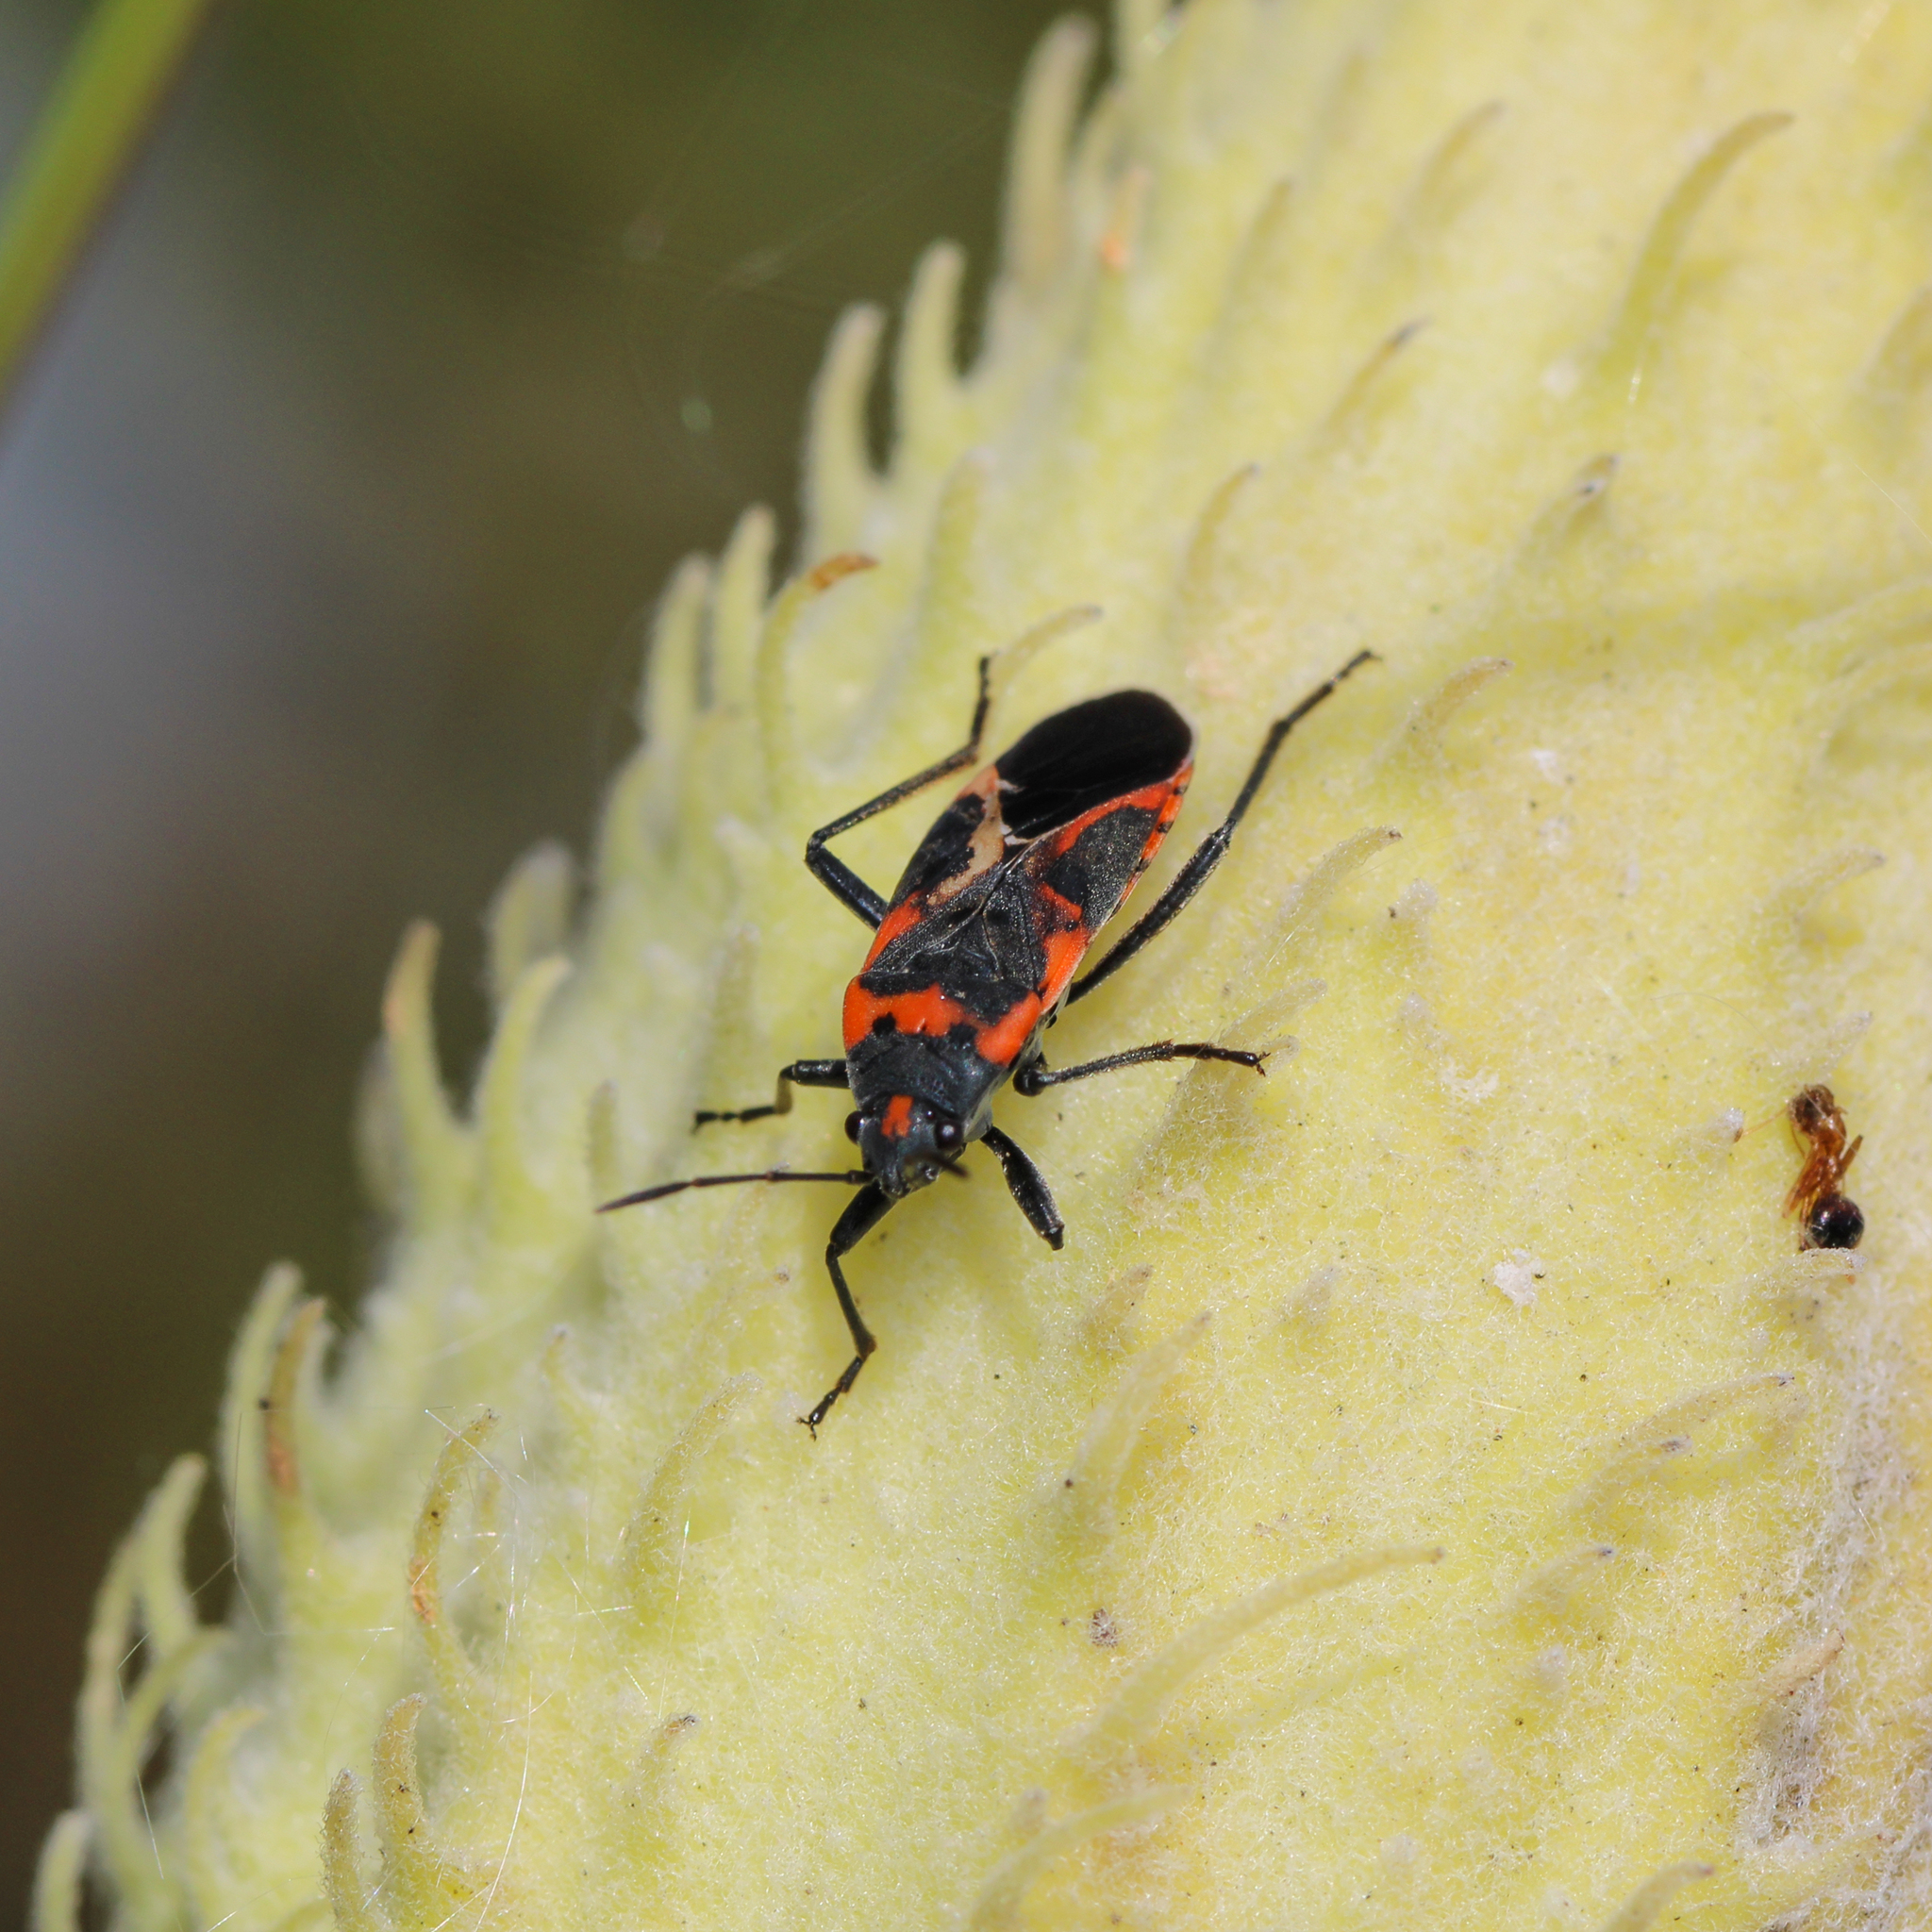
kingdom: Animalia
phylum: Arthropoda
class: Insecta
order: Hemiptera
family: Lygaeidae
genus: Lygaeus
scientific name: Lygaeus kalmii
